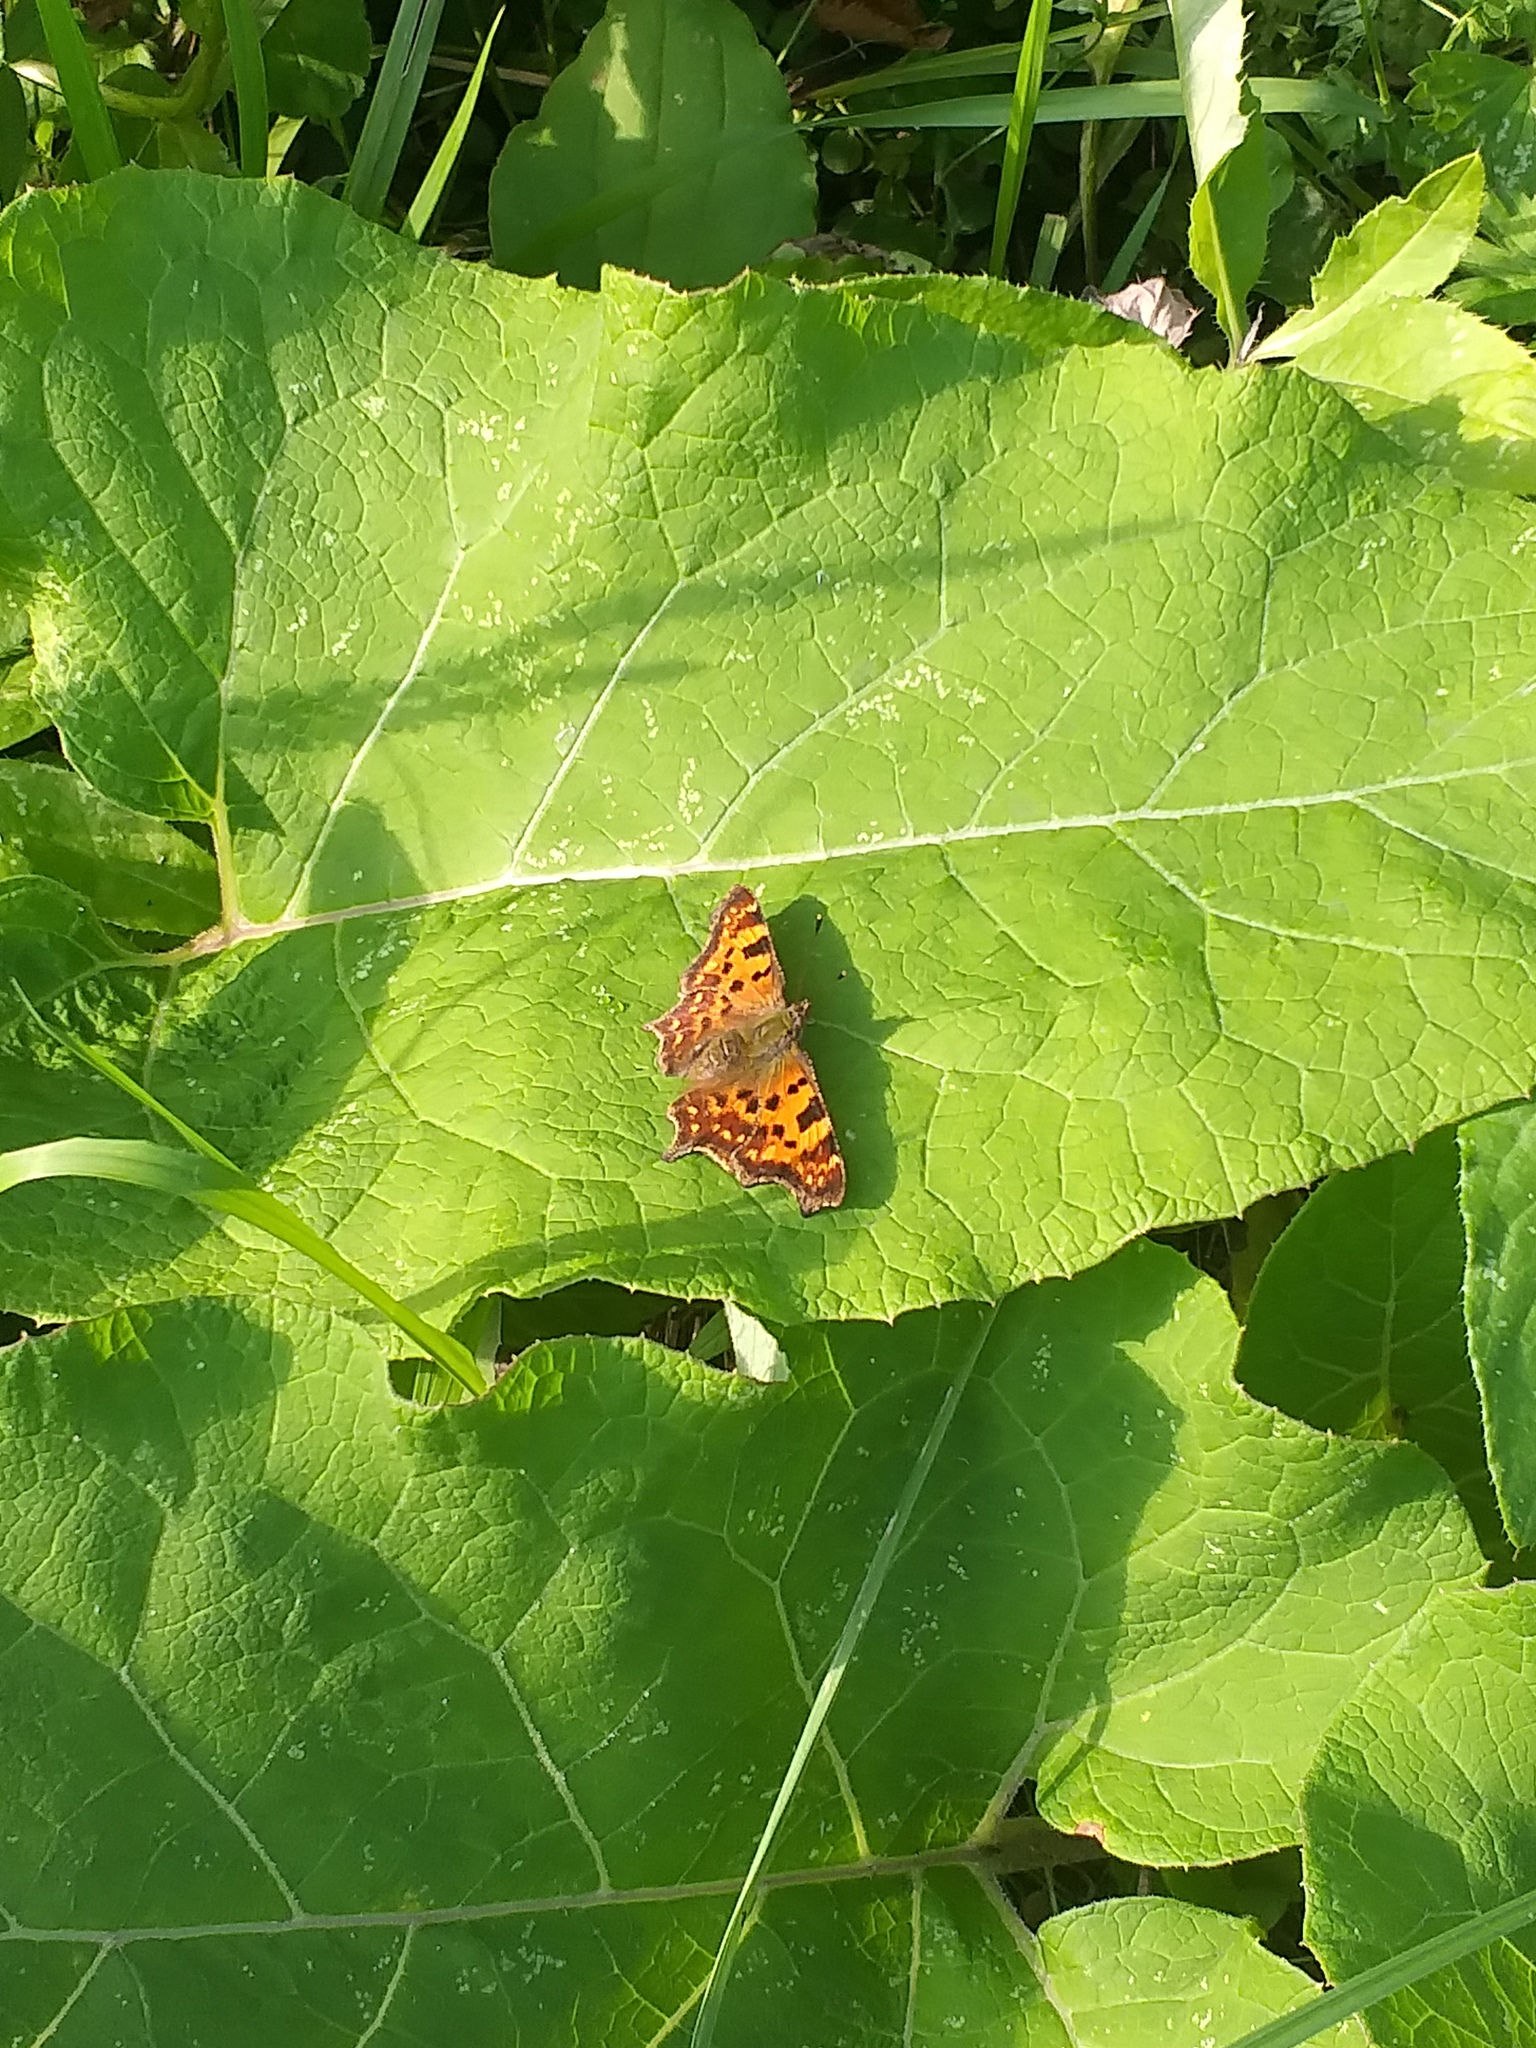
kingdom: Animalia
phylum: Arthropoda
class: Insecta
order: Lepidoptera
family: Nymphalidae
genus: Polygonia
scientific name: Polygonia c-album
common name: Comma
